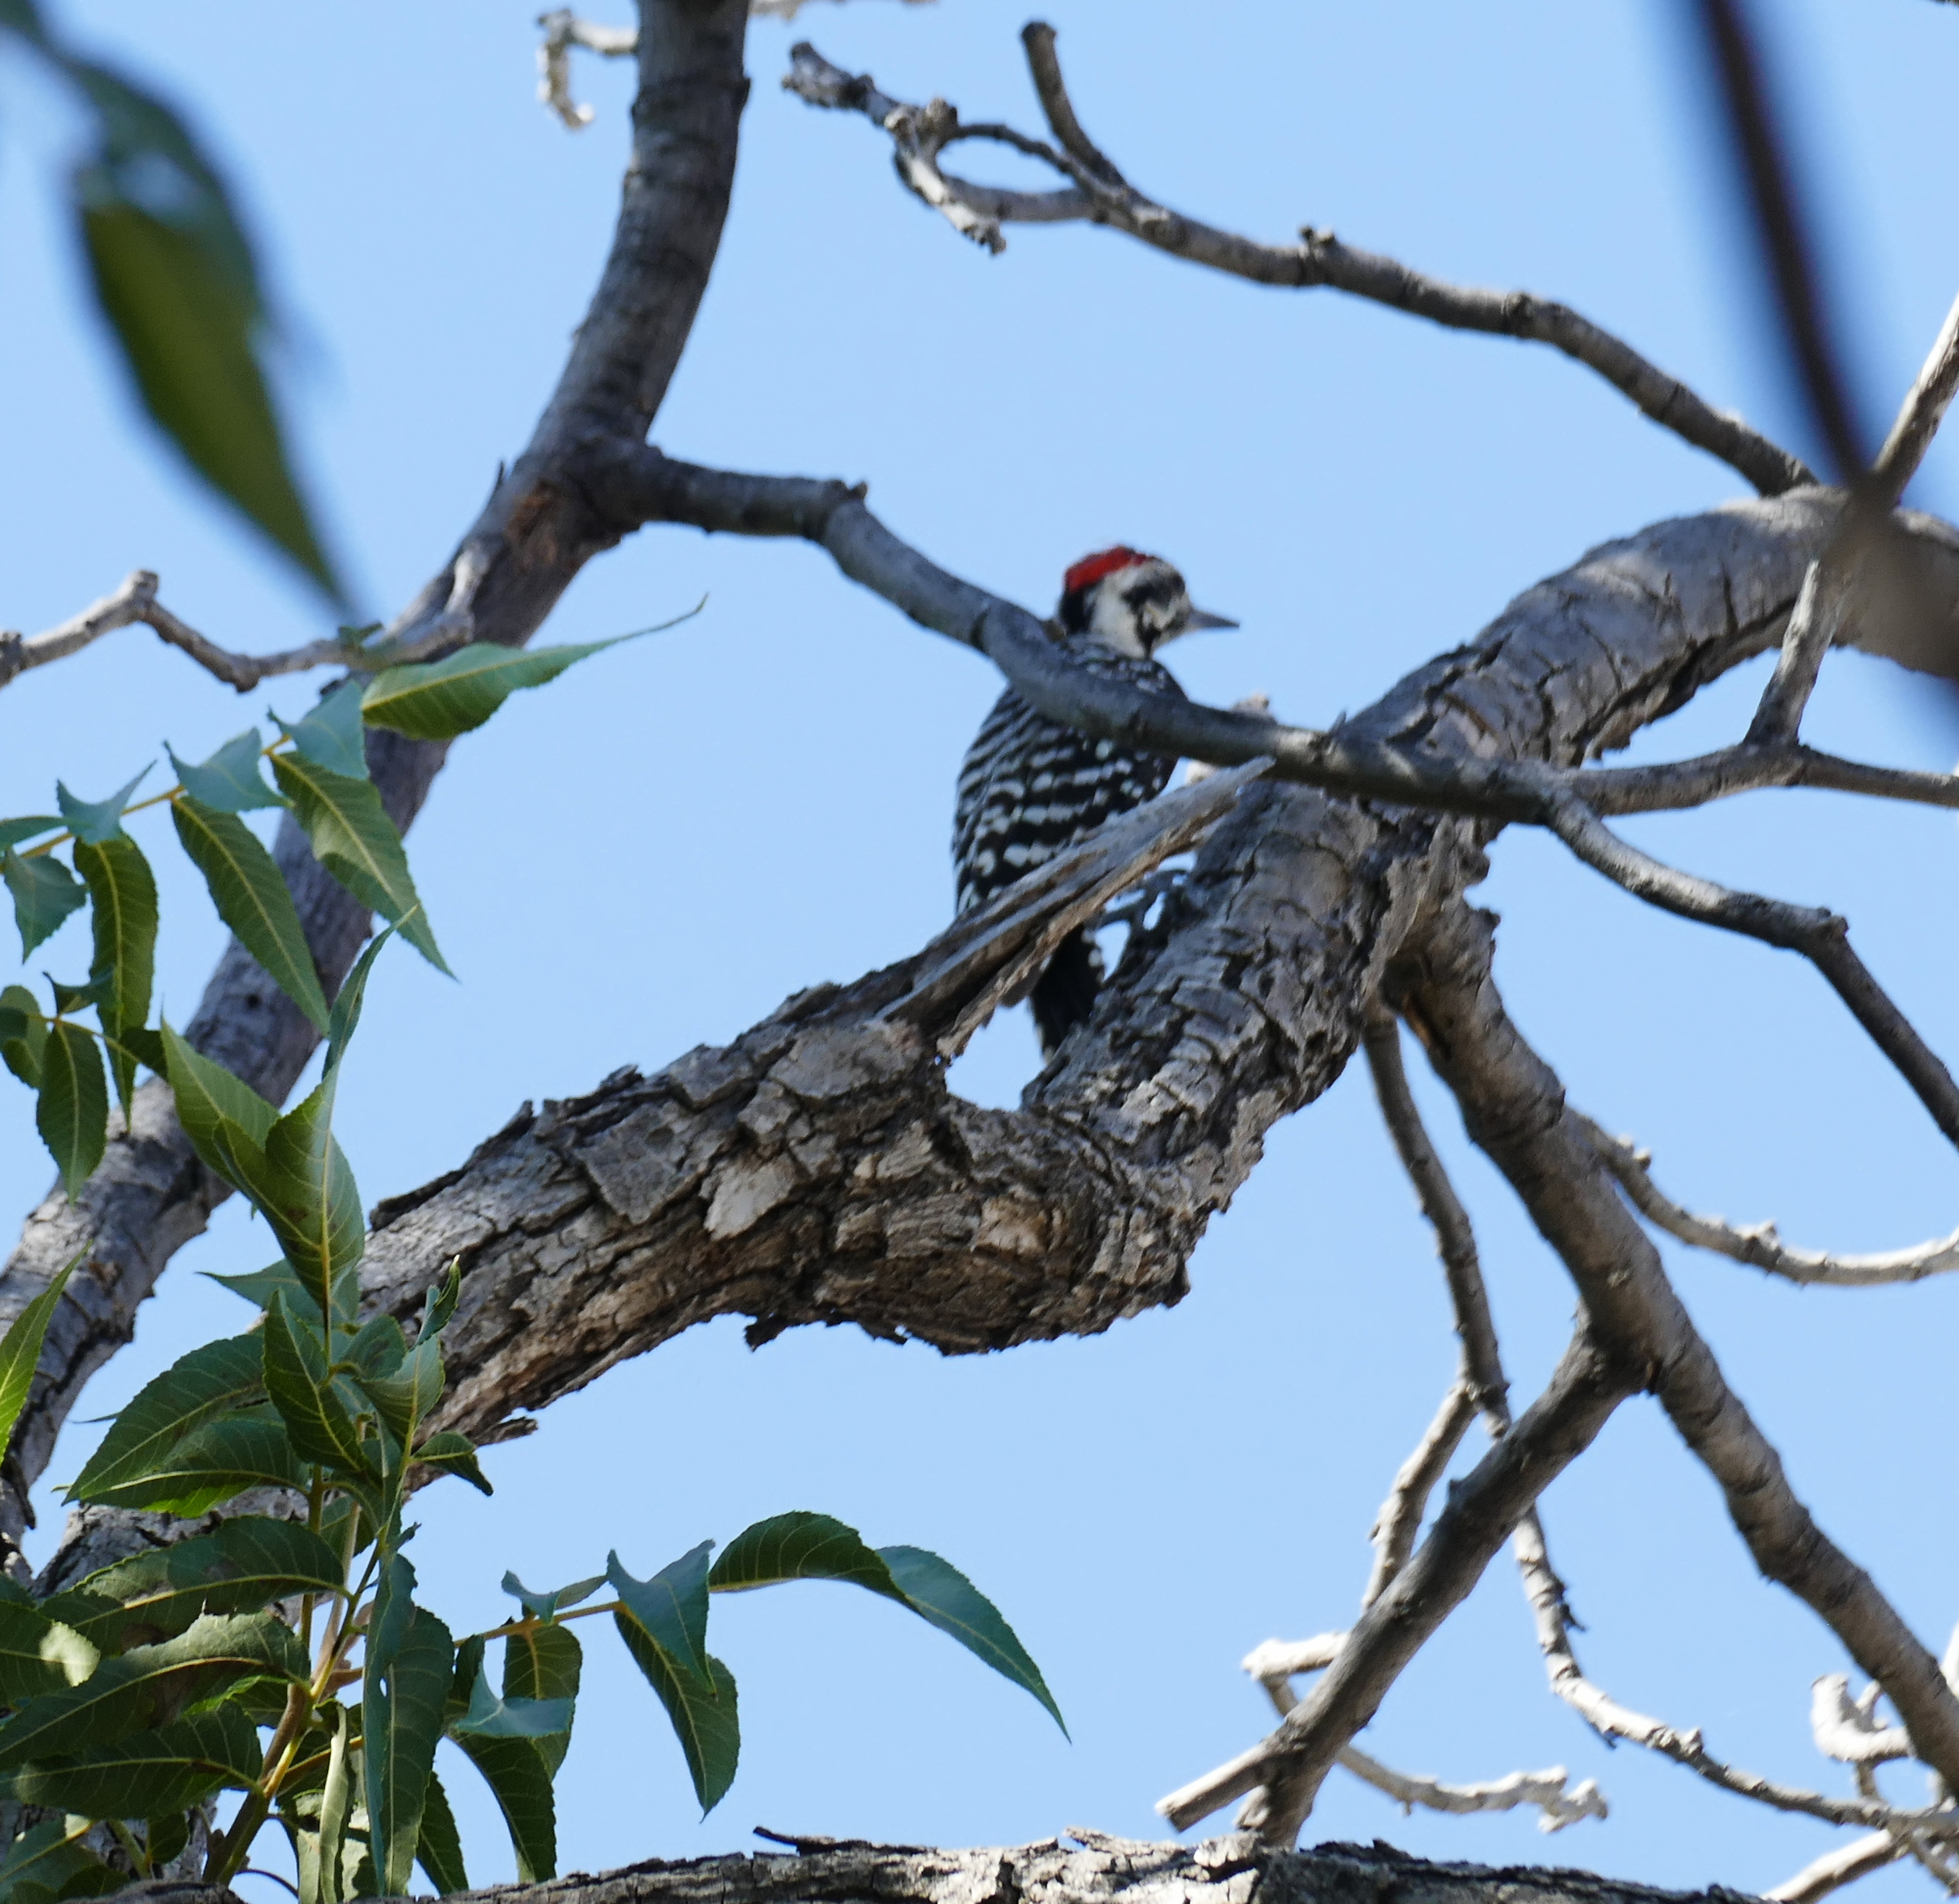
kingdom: Animalia
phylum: Chordata
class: Aves
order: Piciformes
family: Picidae
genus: Dryobates
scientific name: Dryobates scalaris
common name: Ladder-backed woodpecker
